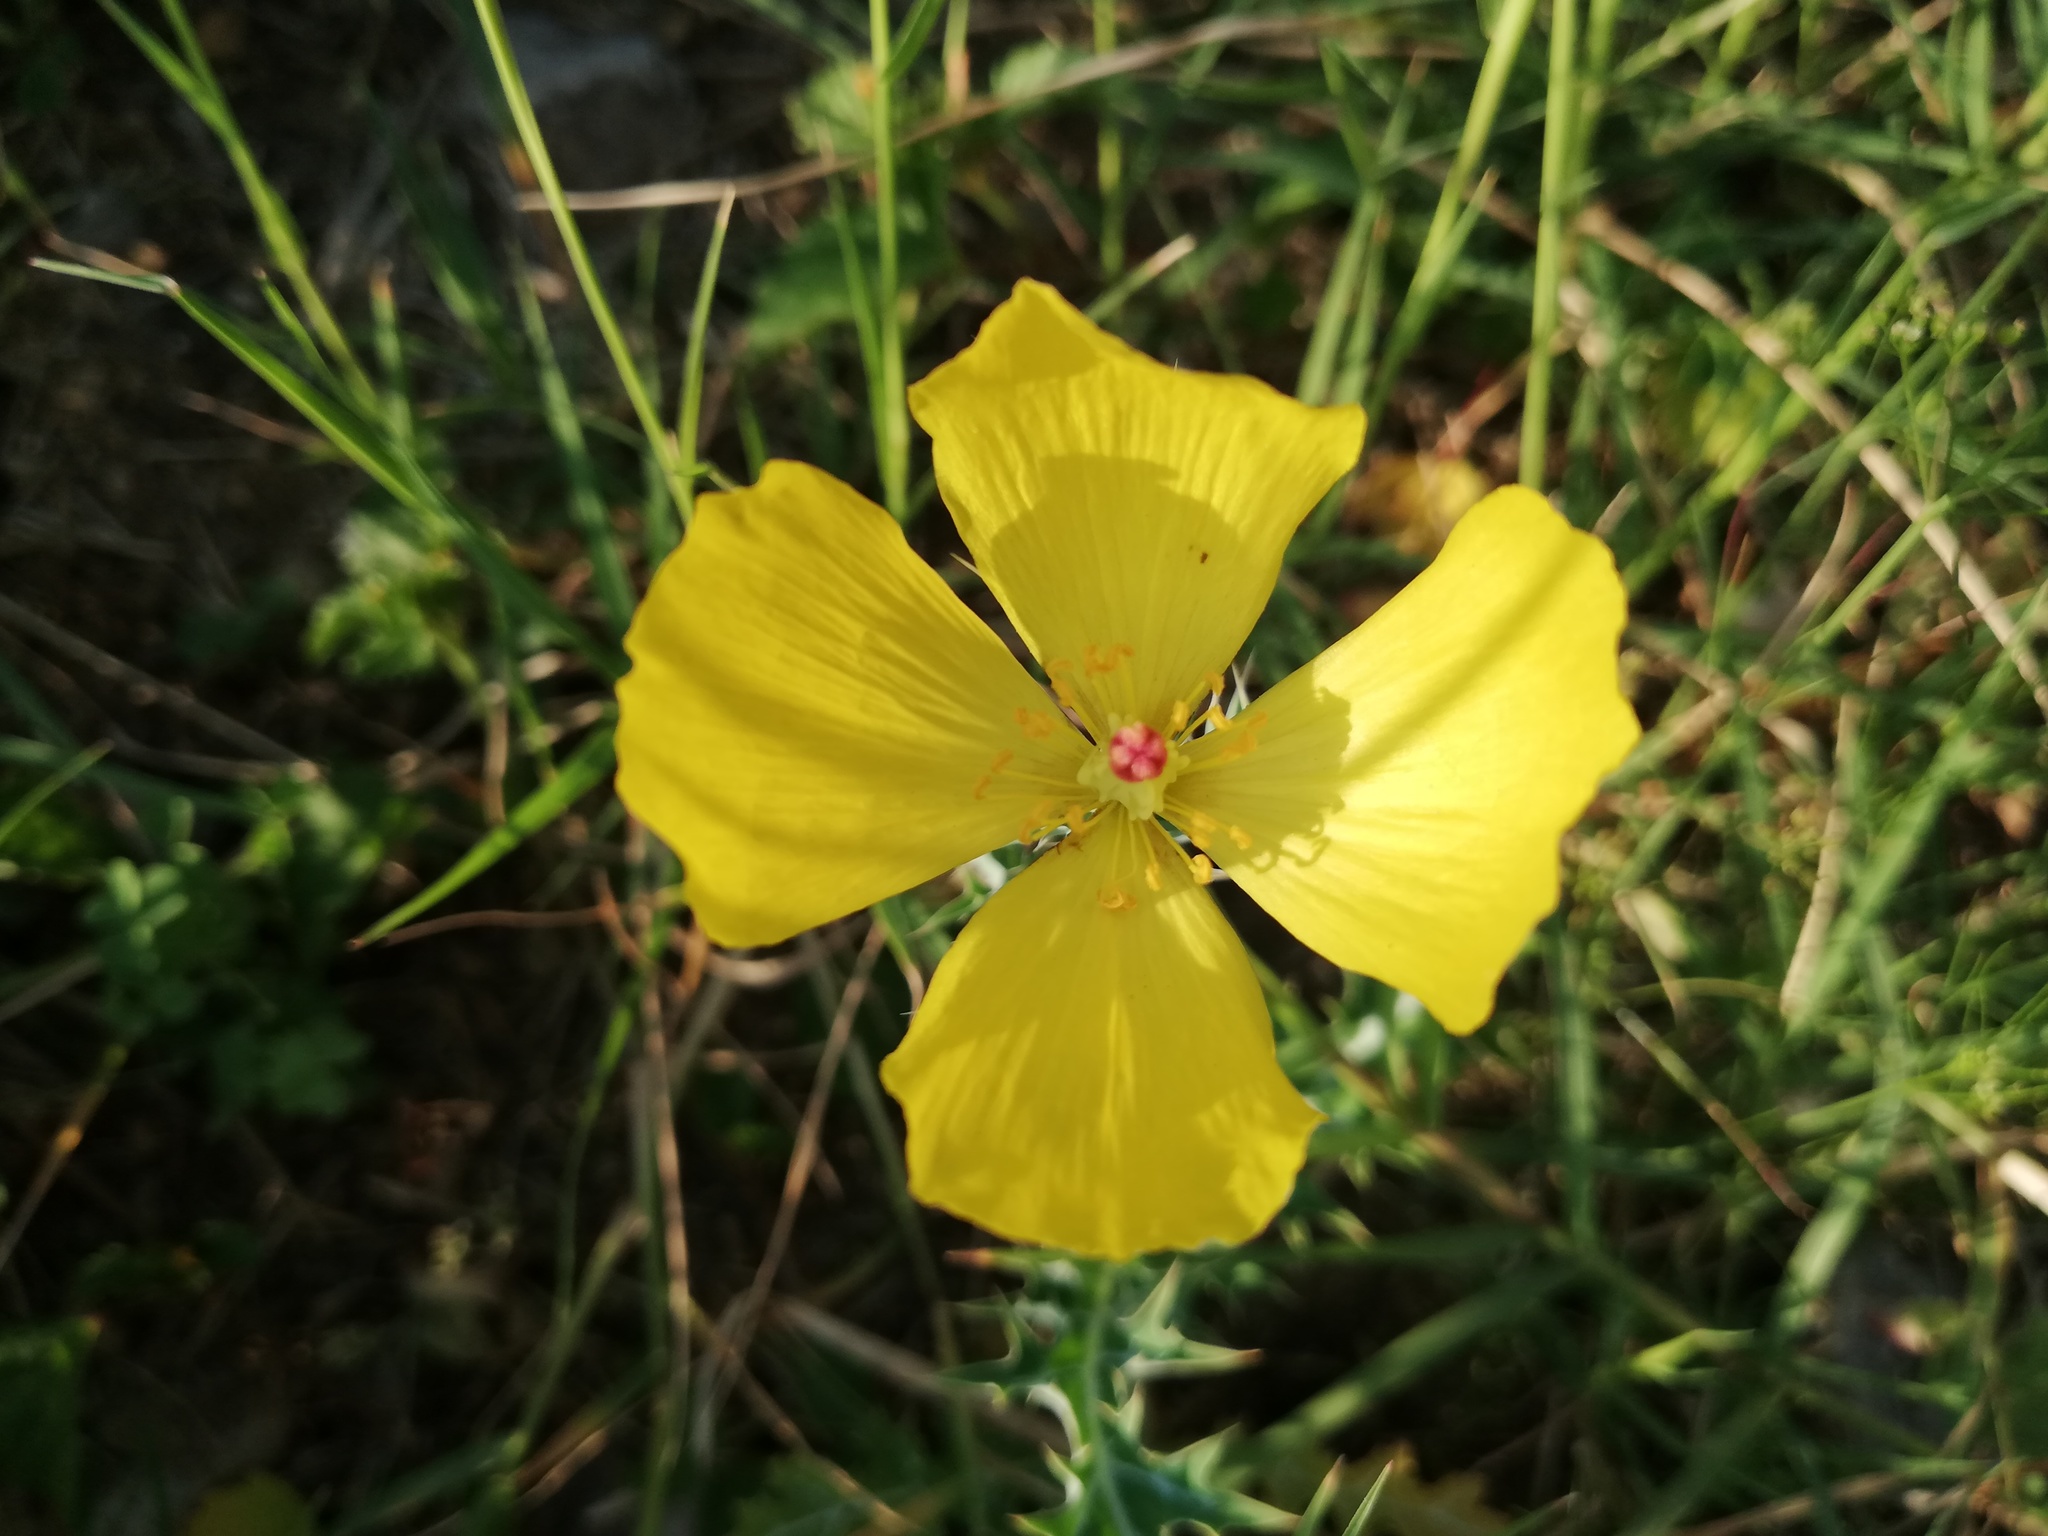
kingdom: Plantae
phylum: Tracheophyta
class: Magnoliopsida
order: Ranunculales
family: Papaveraceae
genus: Argemone
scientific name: Argemone mexicana
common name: Mexican poppy
